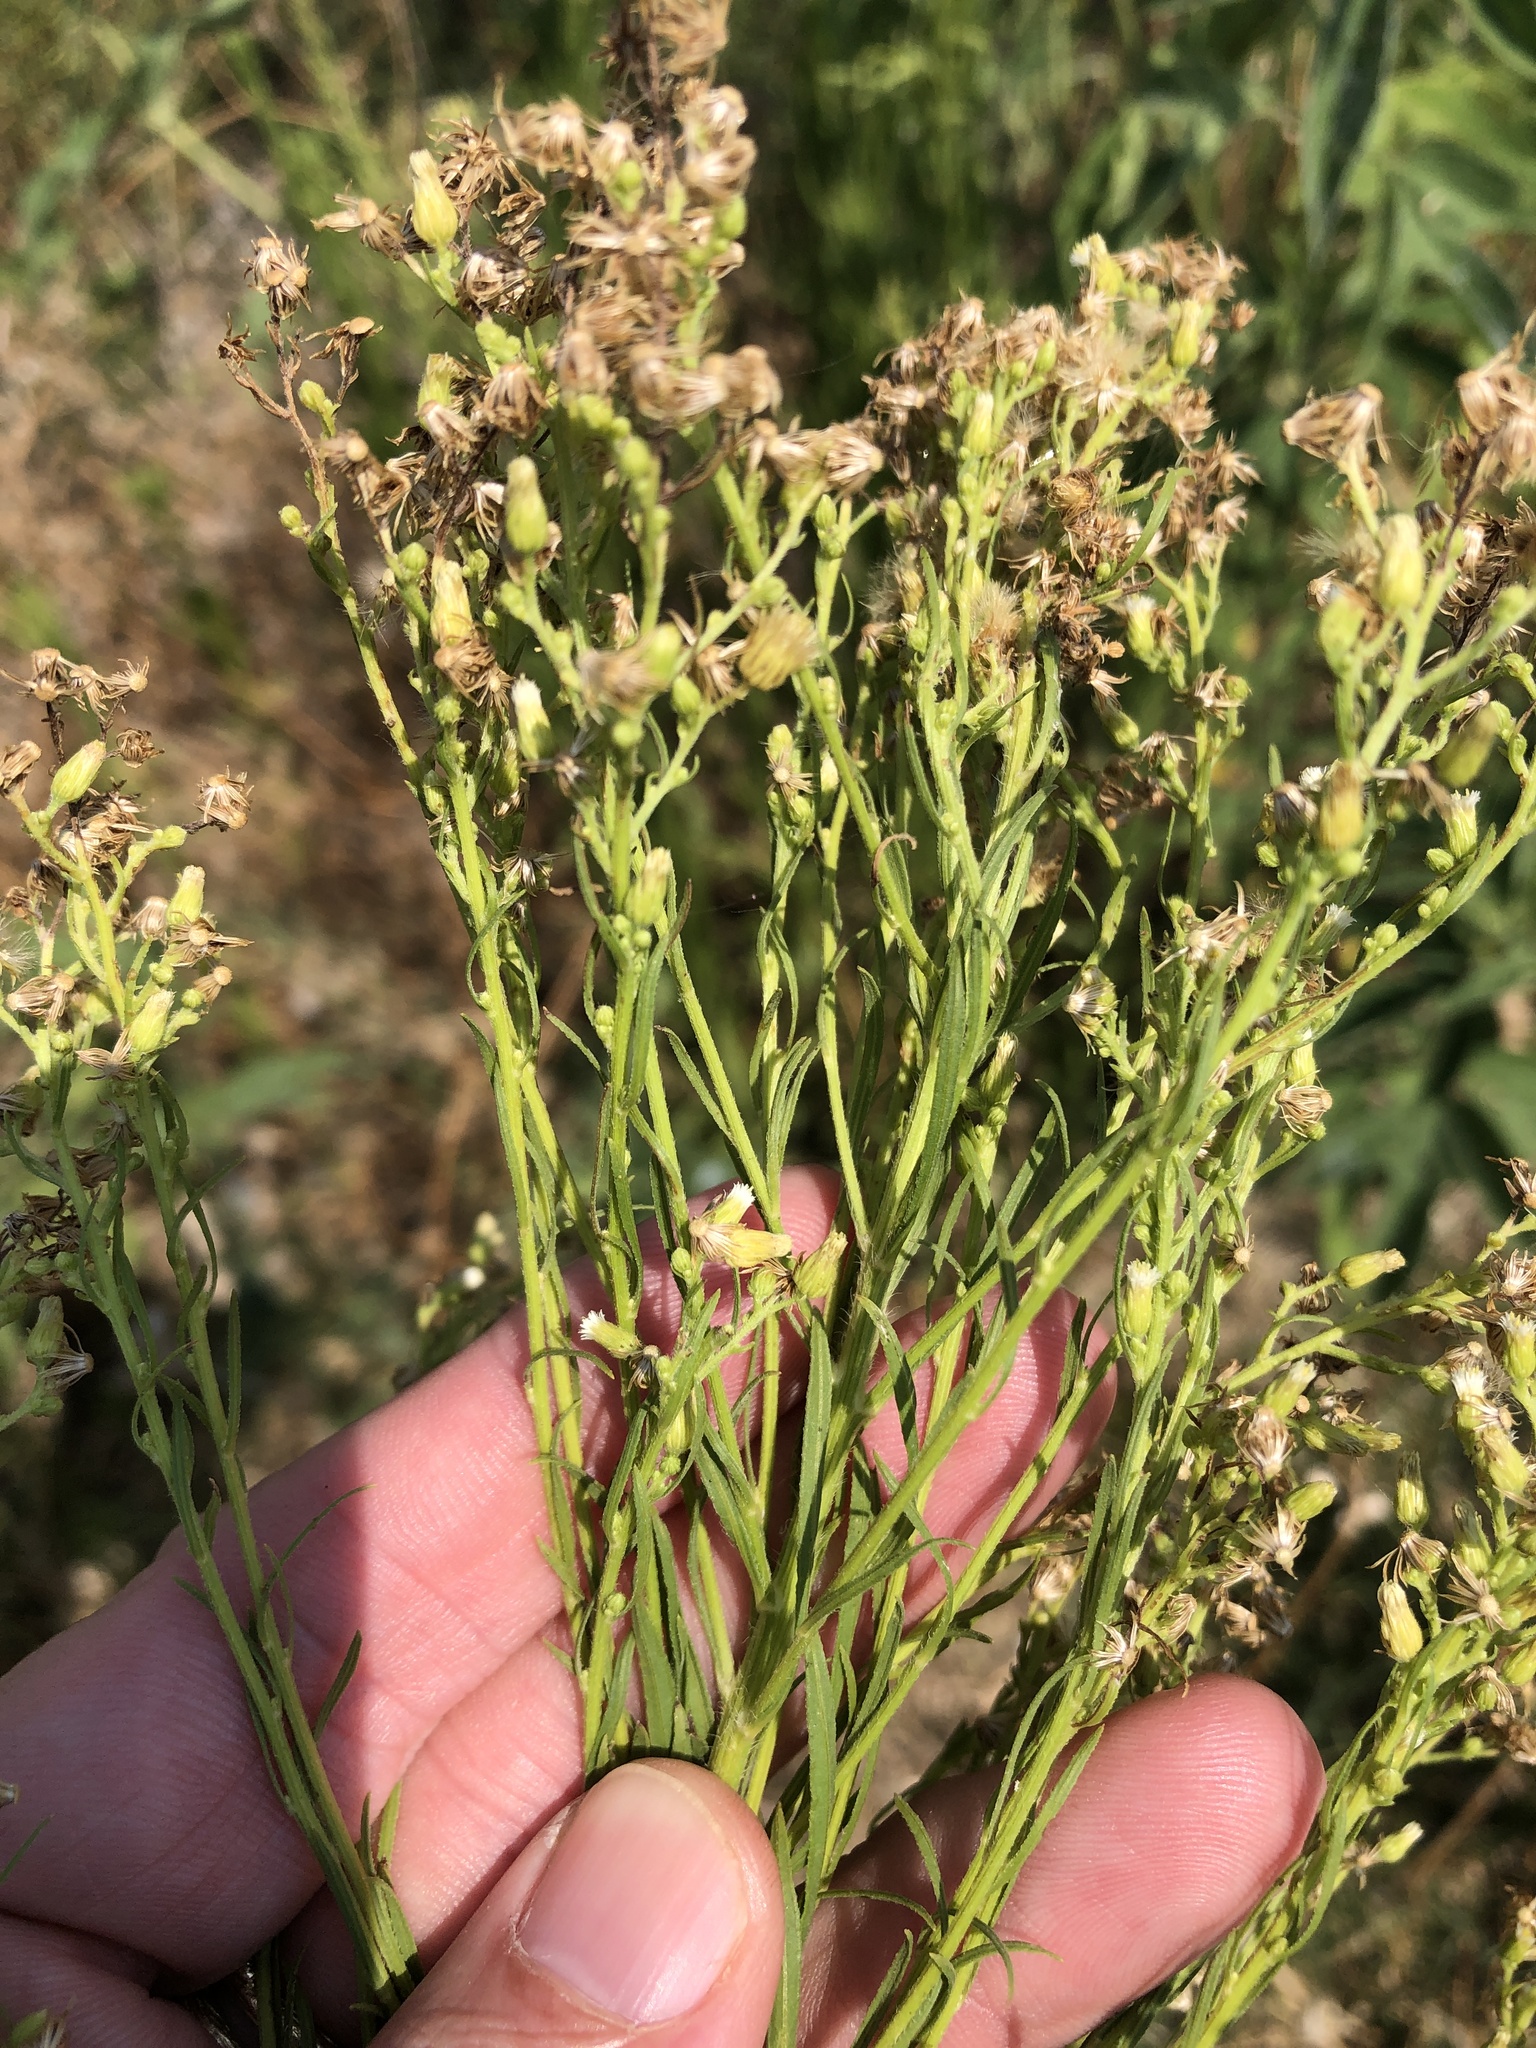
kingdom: Plantae
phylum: Tracheophyta
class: Magnoliopsida
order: Asterales
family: Asteraceae
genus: Erigeron
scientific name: Erigeron canadensis
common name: Canadian fleabane
